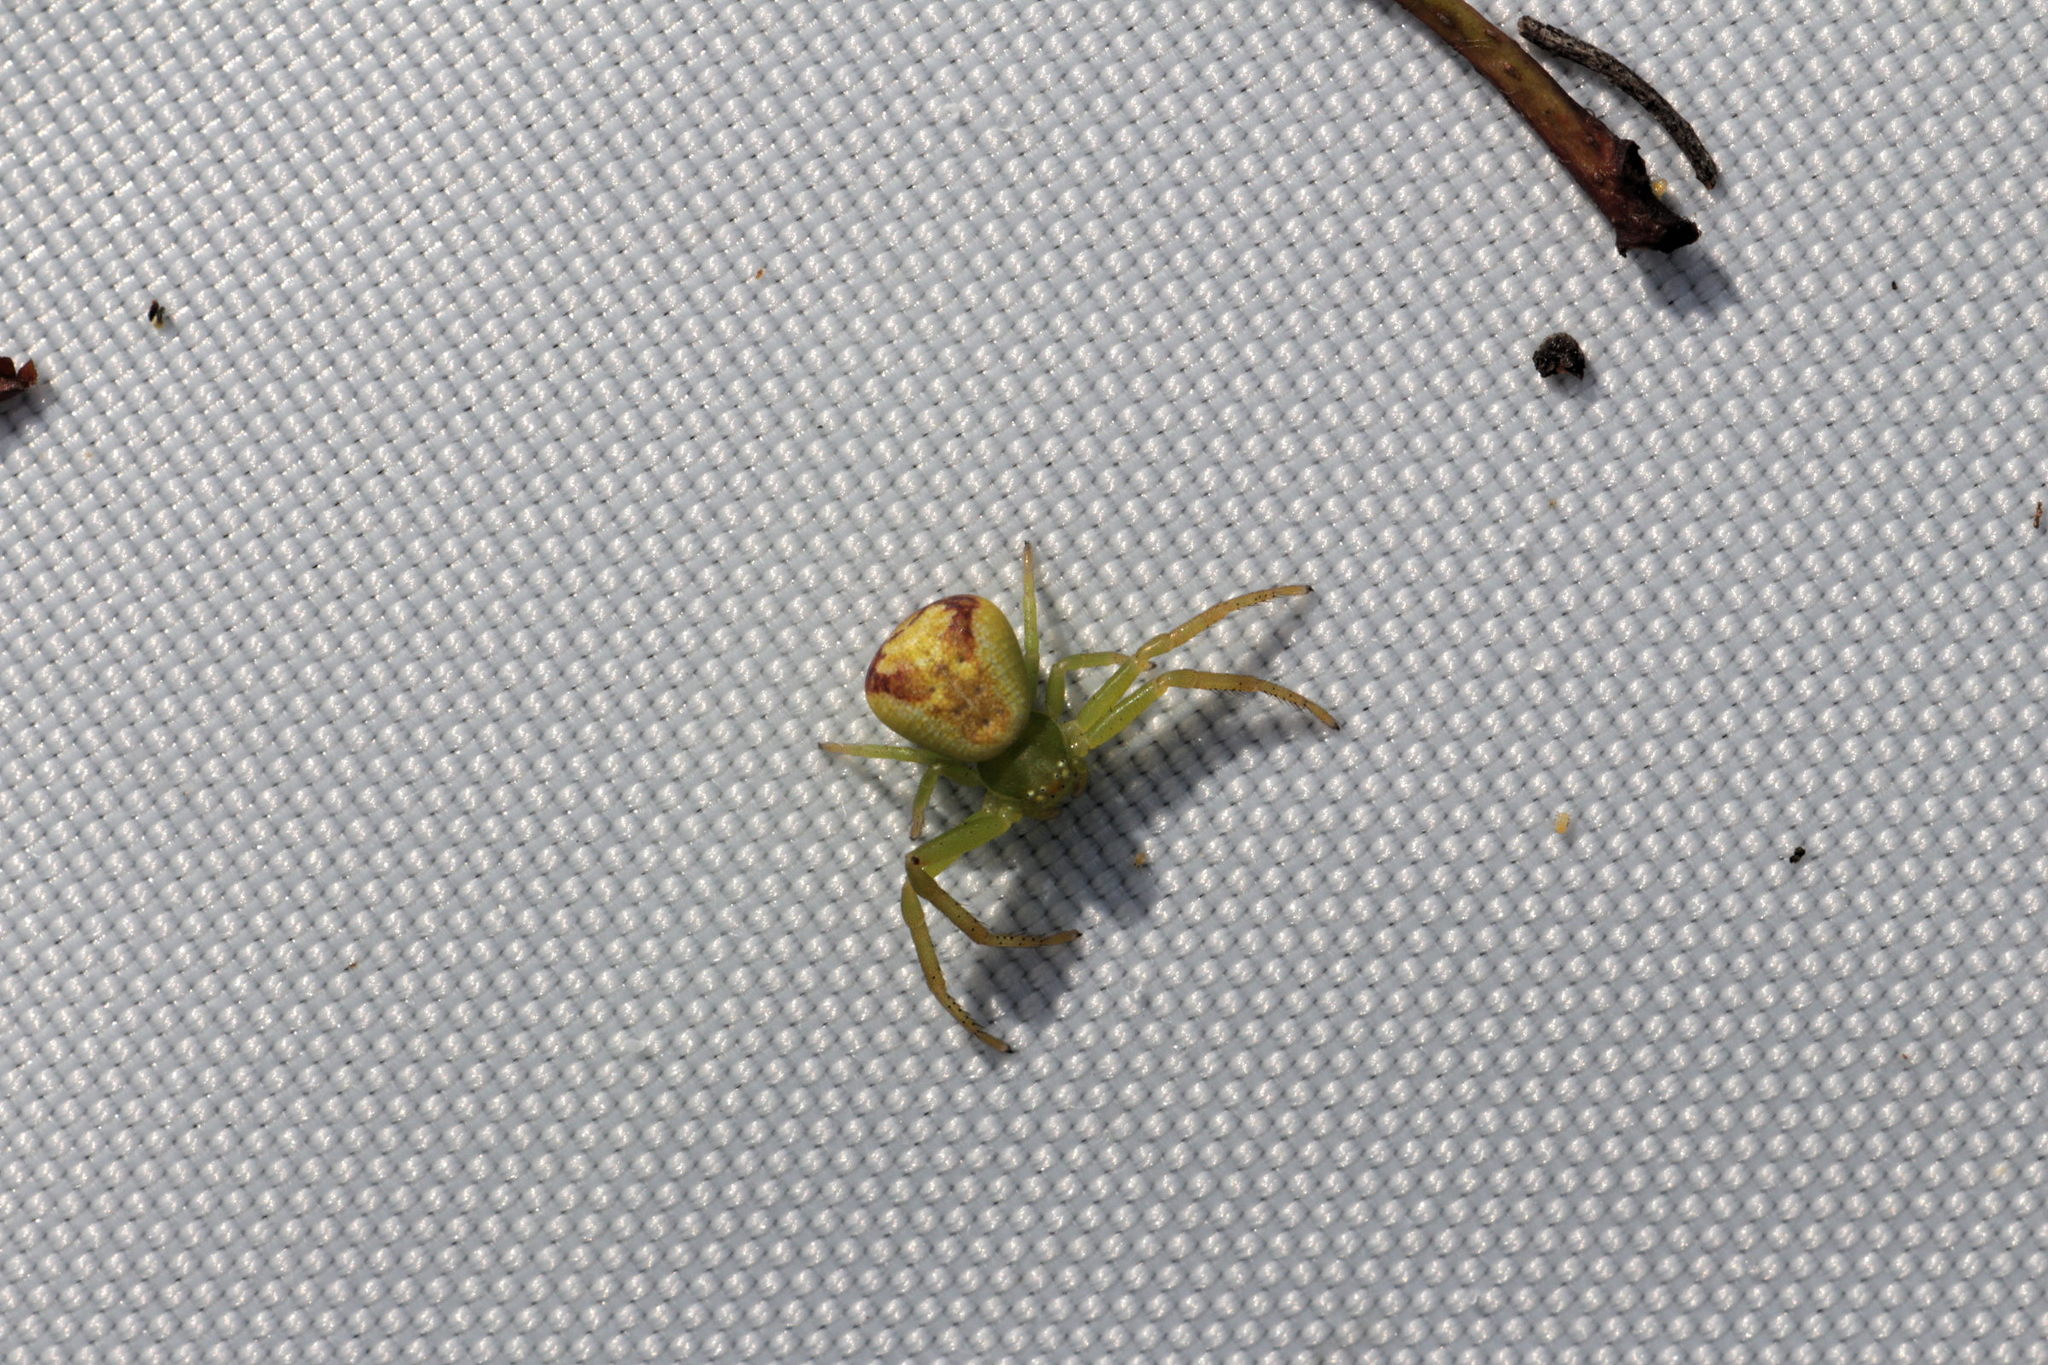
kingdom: Animalia
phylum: Arthropoda
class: Arachnida
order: Araneae
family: Thomisidae
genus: Ebrechtella
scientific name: Ebrechtella tricuspidata
